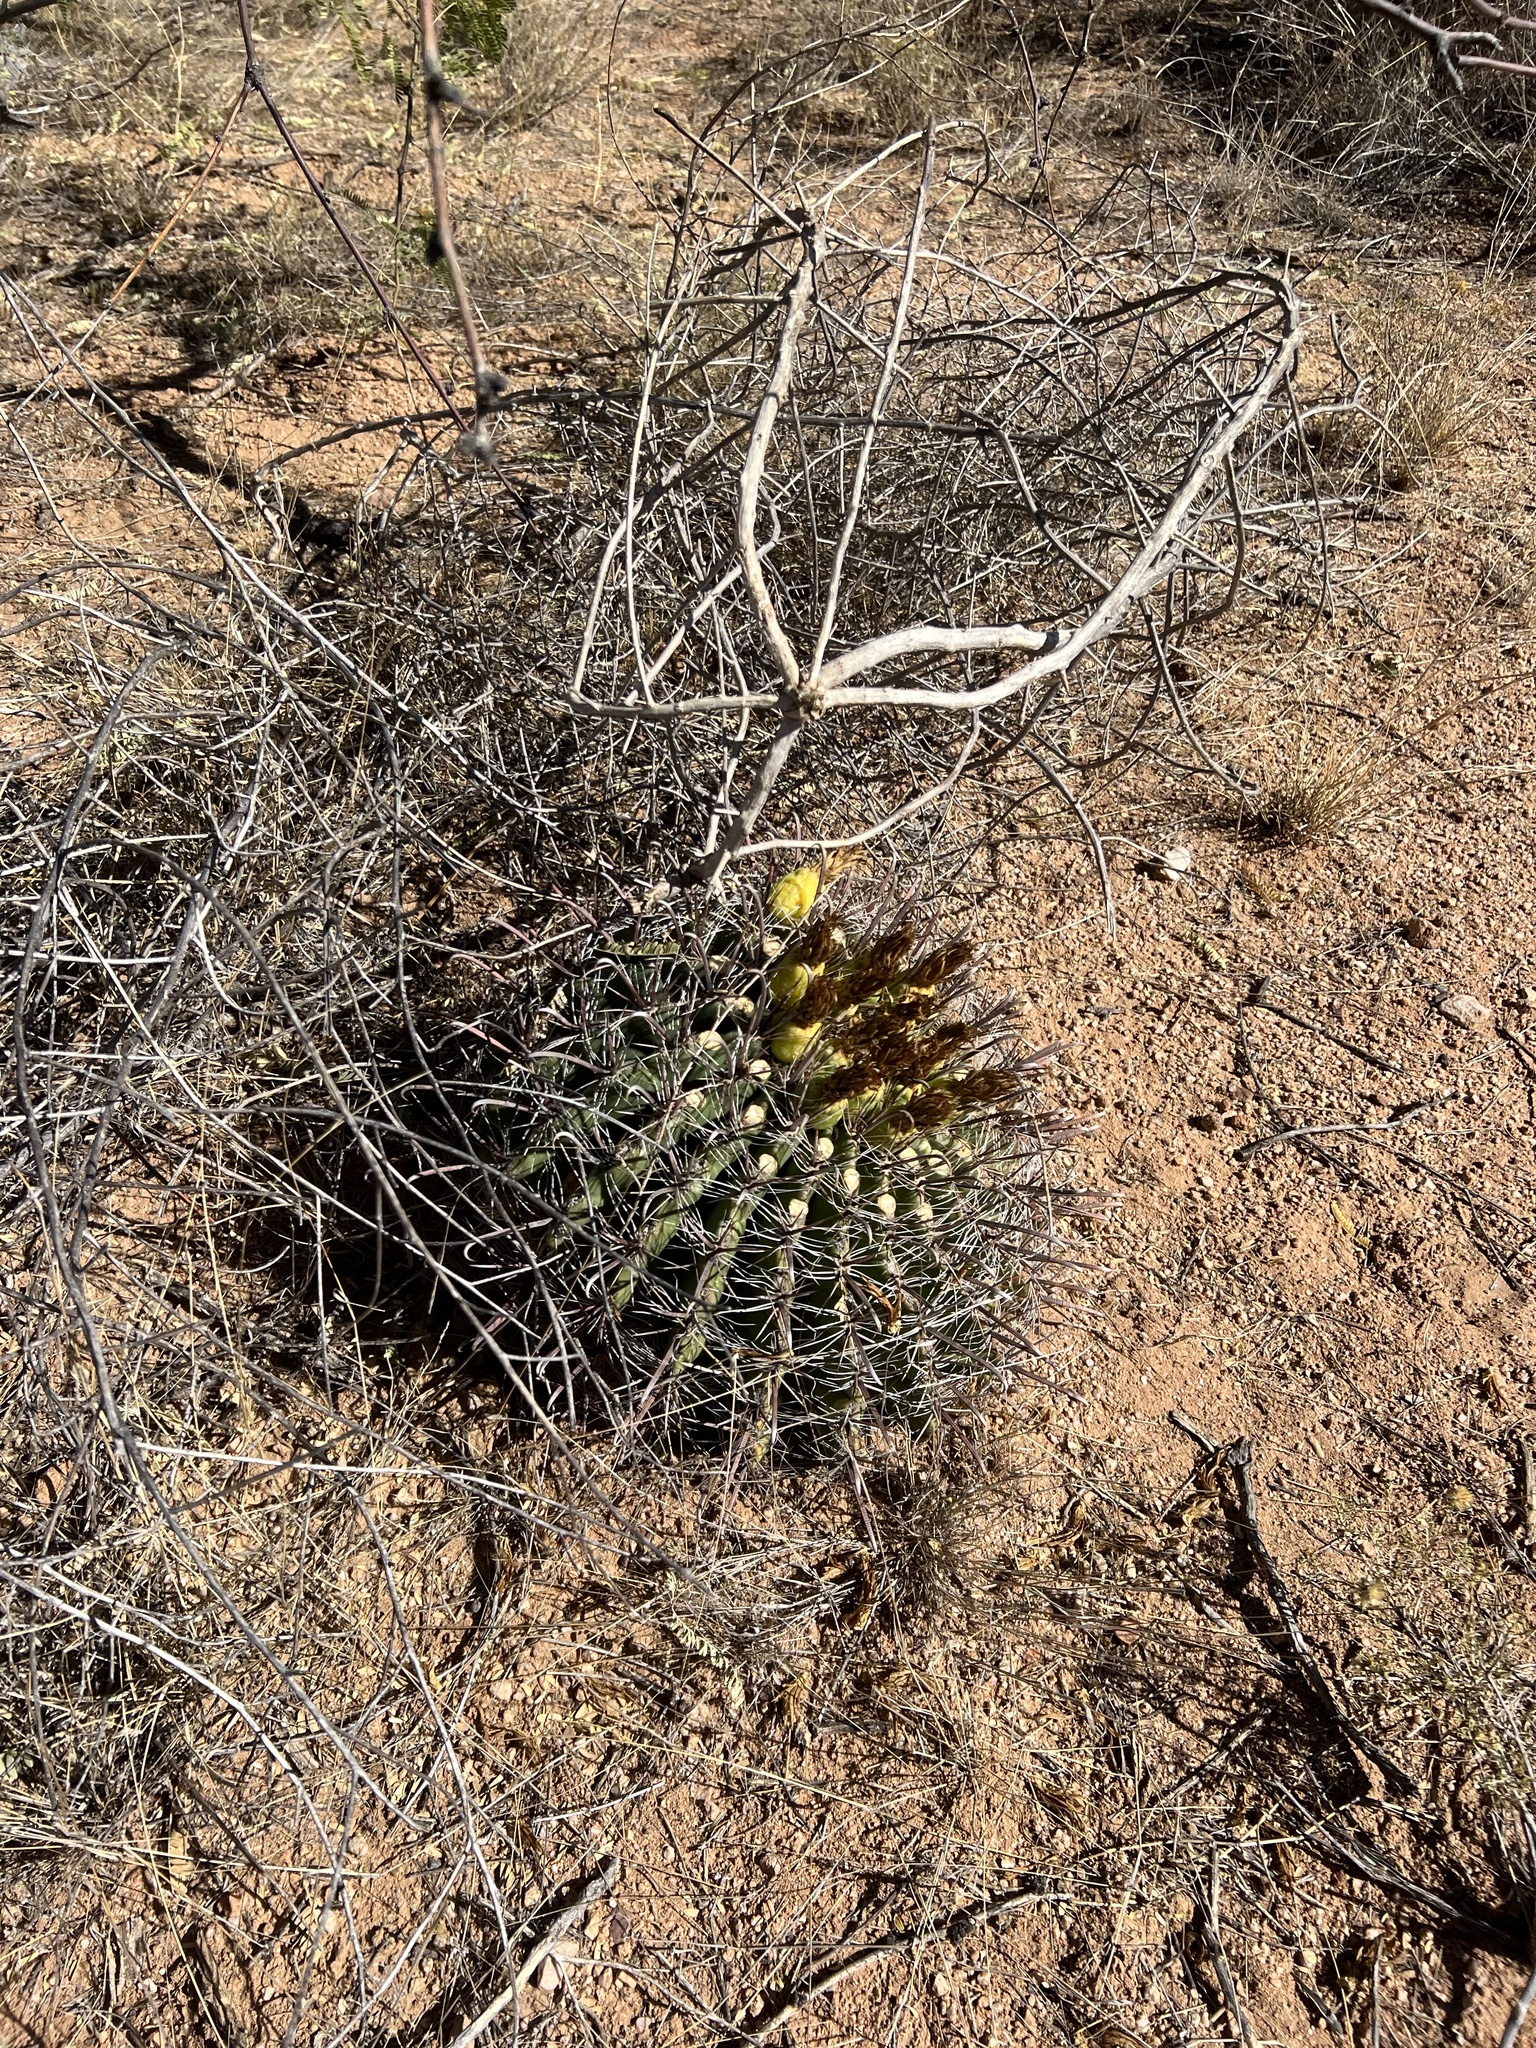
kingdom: Plantae
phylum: Tracheophyta
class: Magnoliopsida
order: Caryophyllales
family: Cactaceae
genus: Ferocactus
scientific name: Ferocactus wislizeni
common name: Candy barrel cactus
